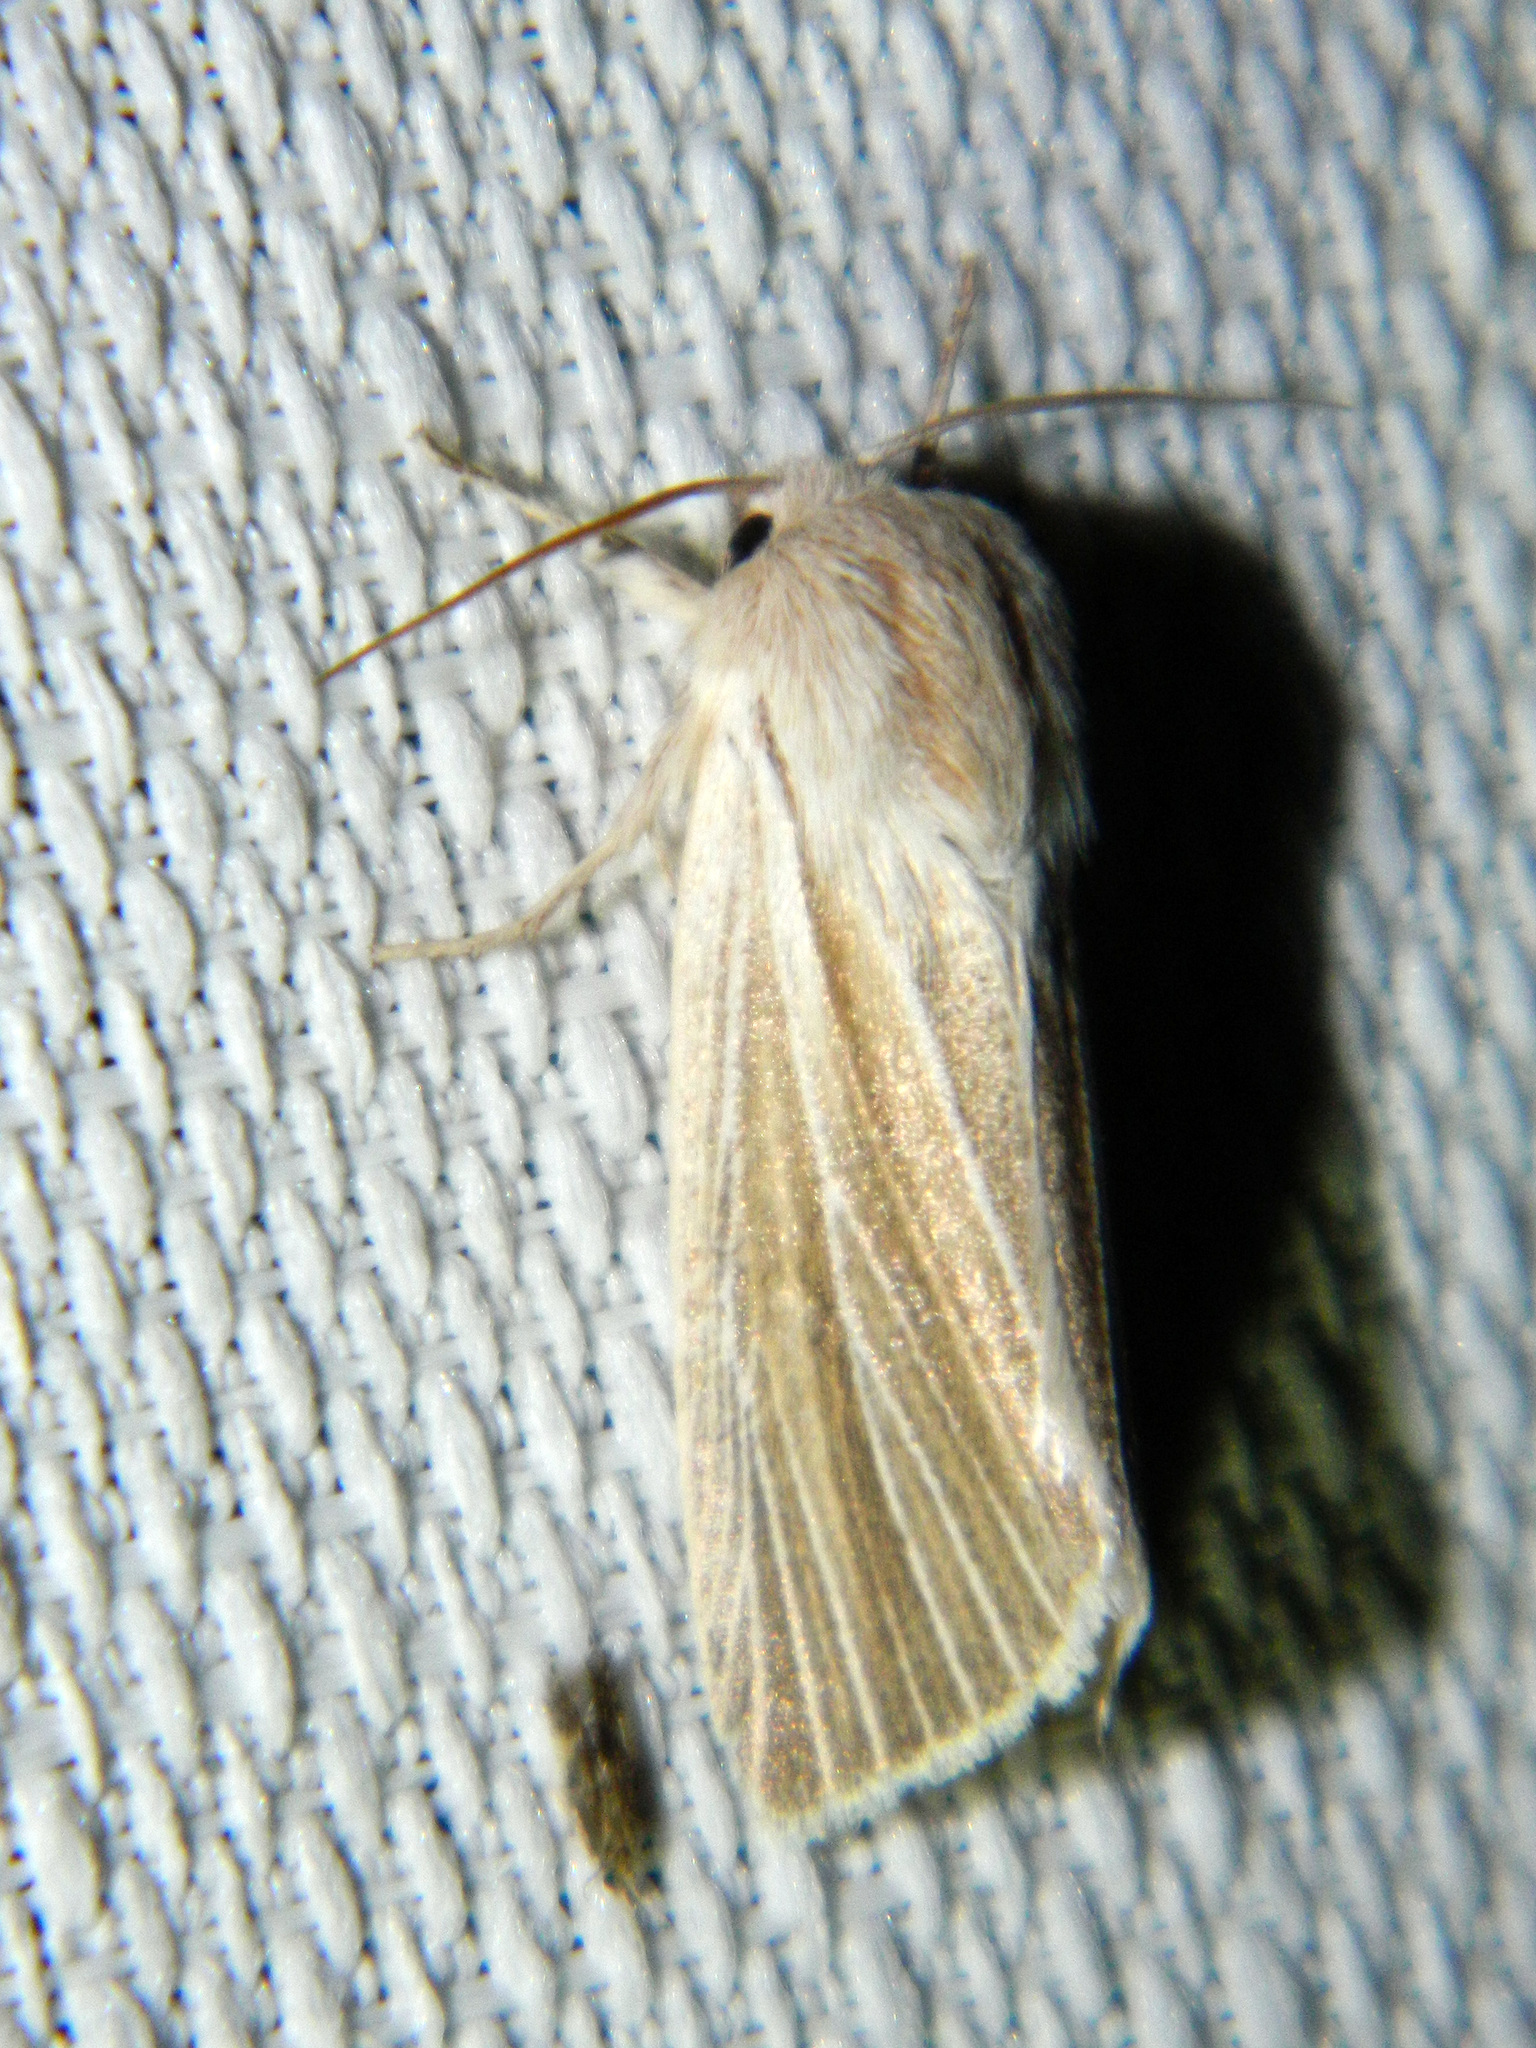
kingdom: Animalia
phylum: Arthropoda
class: Insecta
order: Lepidoptera
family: Noctuidae
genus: Acronicta
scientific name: Acronicta insularis
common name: Henry's marsh moth
